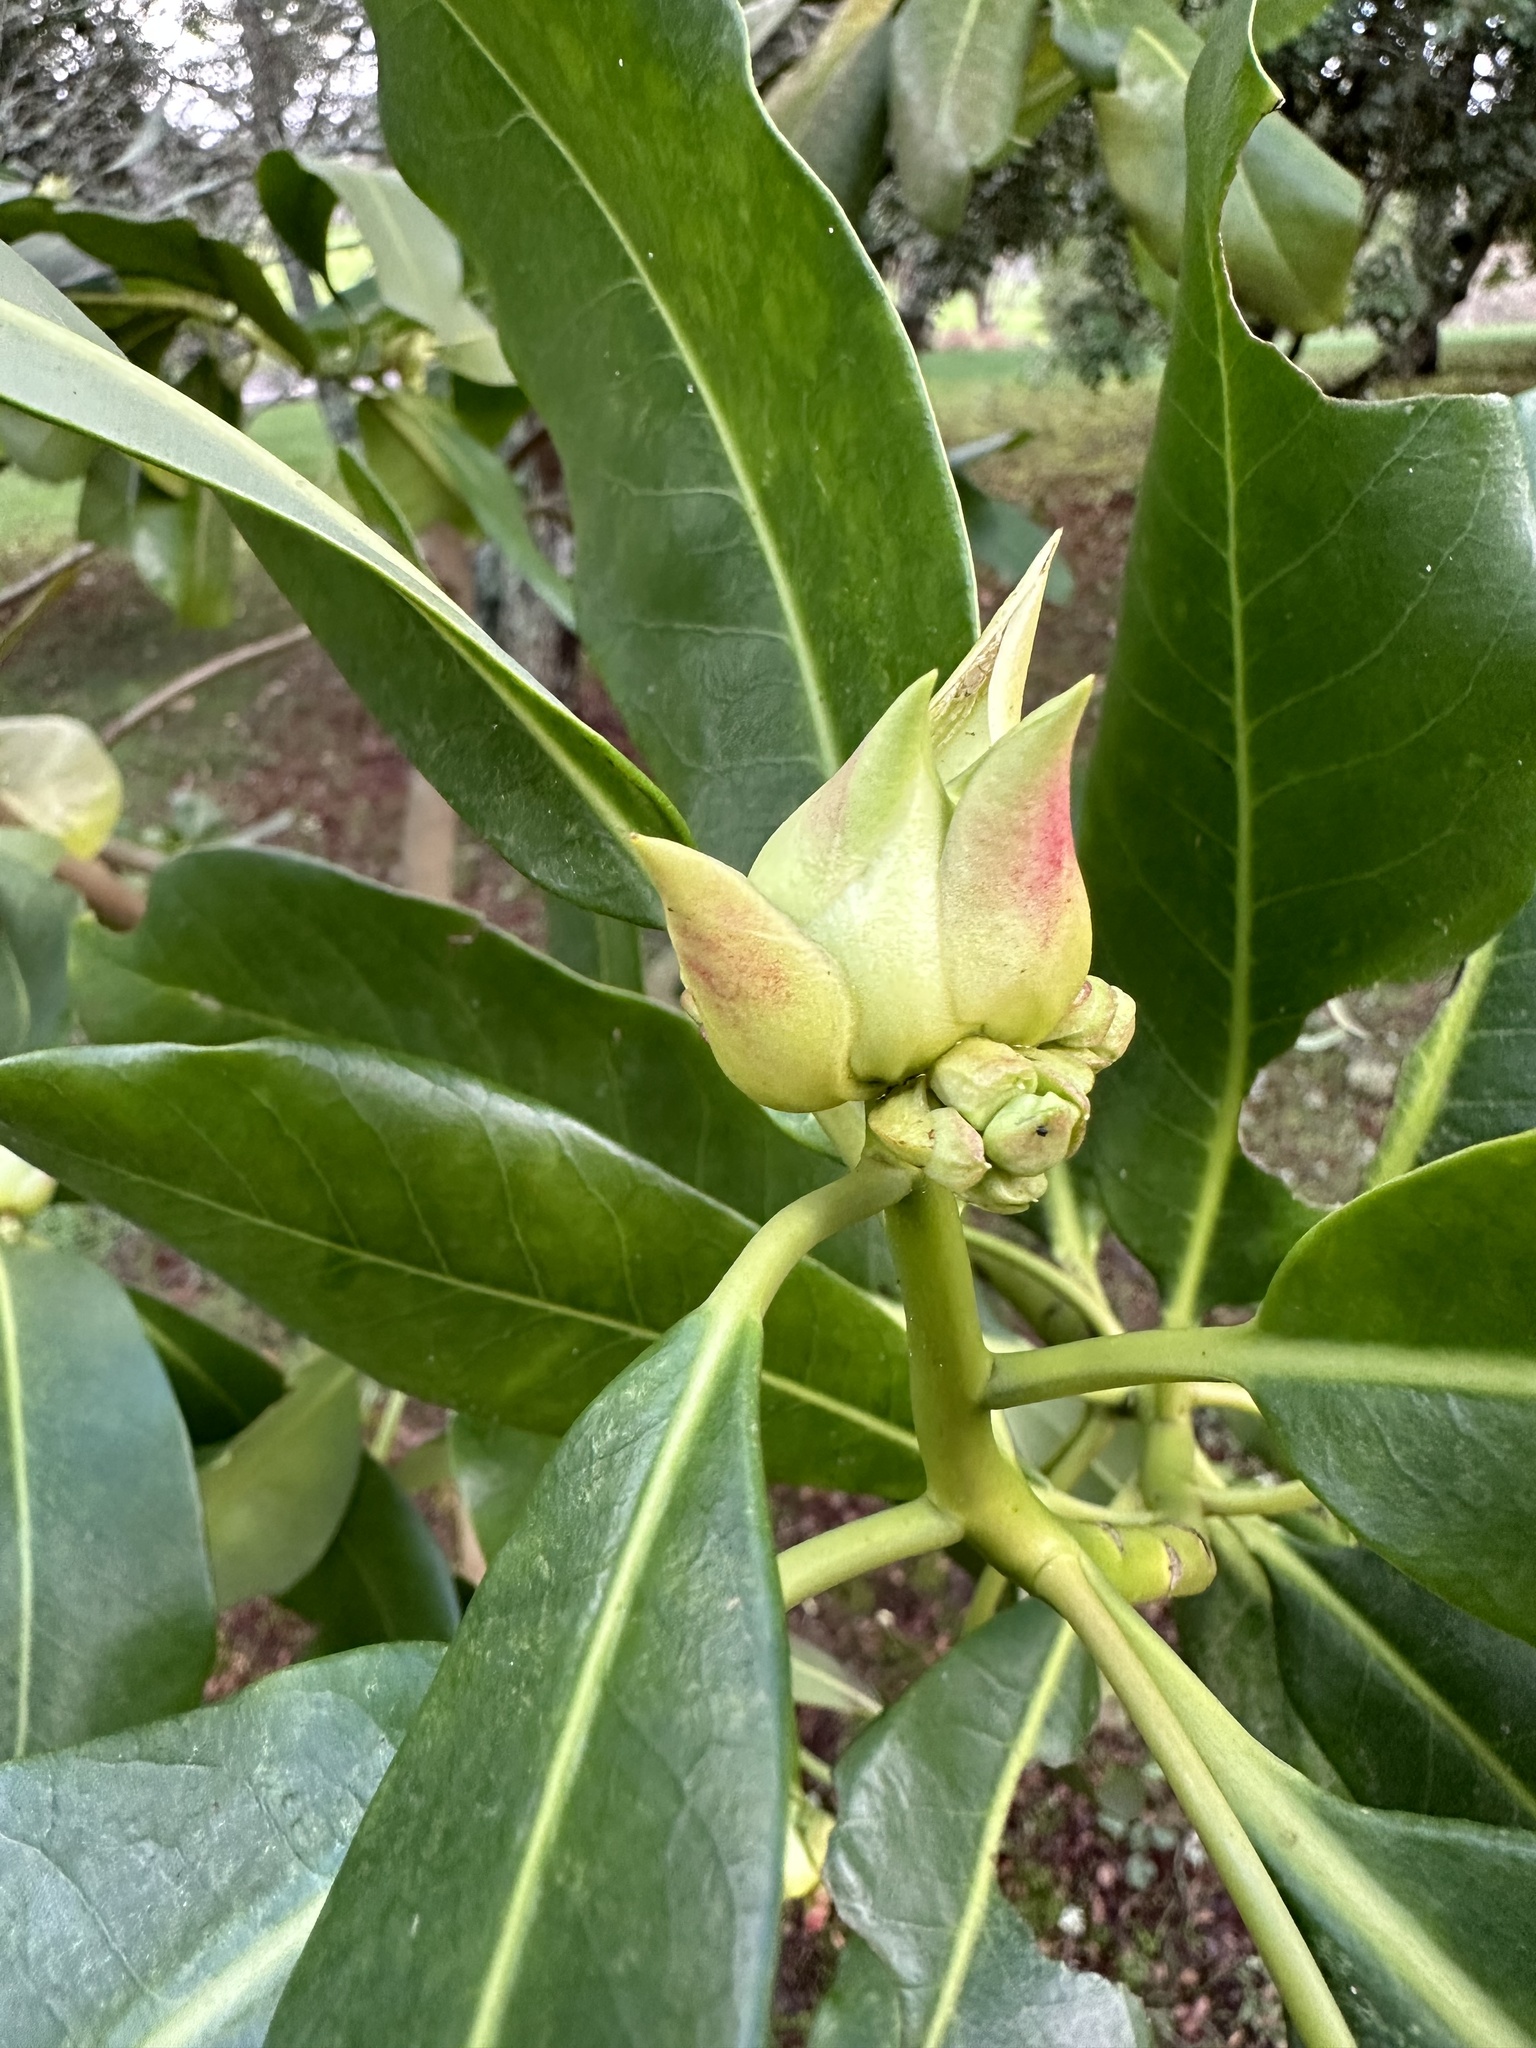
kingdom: Plantae
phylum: Tracheophyta
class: Magnoliopsida
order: Canellales
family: Winteraceae
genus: Drimys
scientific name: Drimys winteri
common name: Winter's-bark
